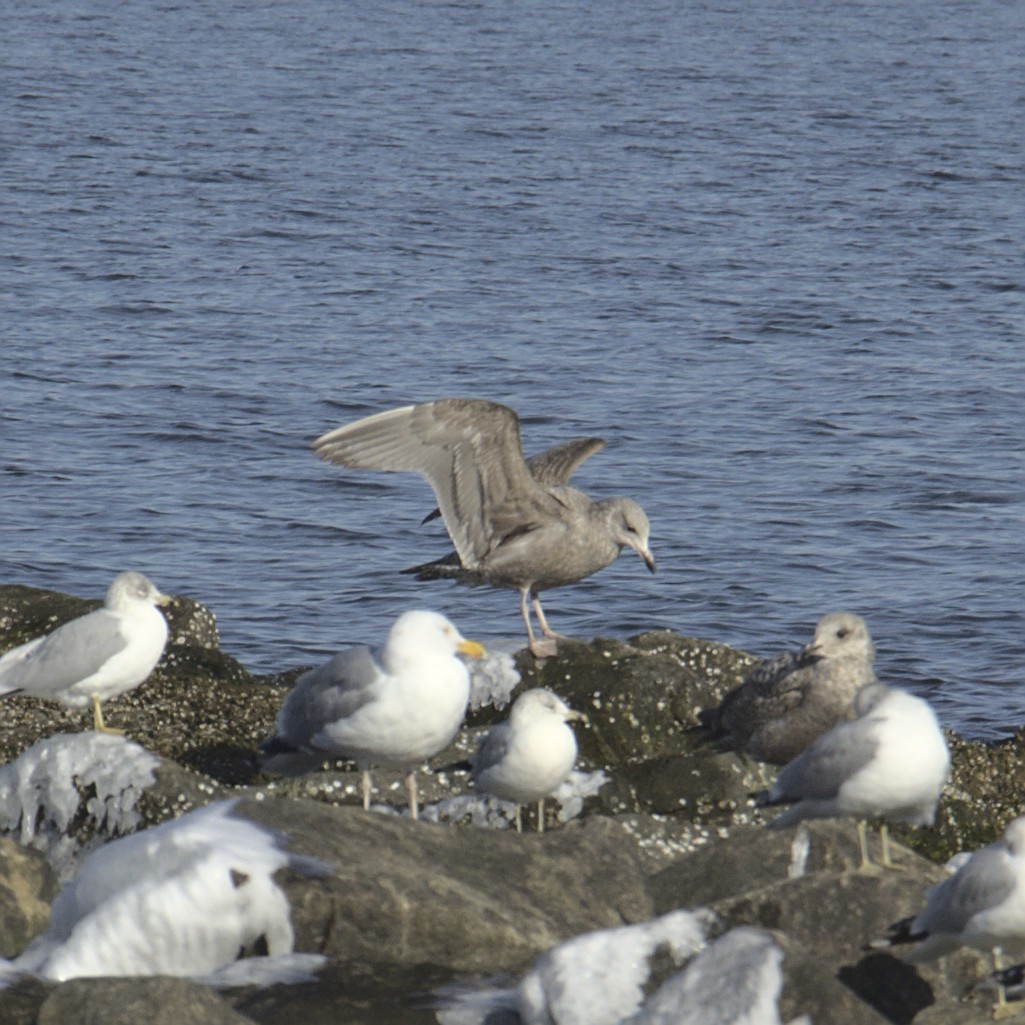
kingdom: Animalia
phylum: Chordata
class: Aves
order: Charadriiformes
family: Laridae
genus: Larus
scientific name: Larus argentatus
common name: Herring gull
